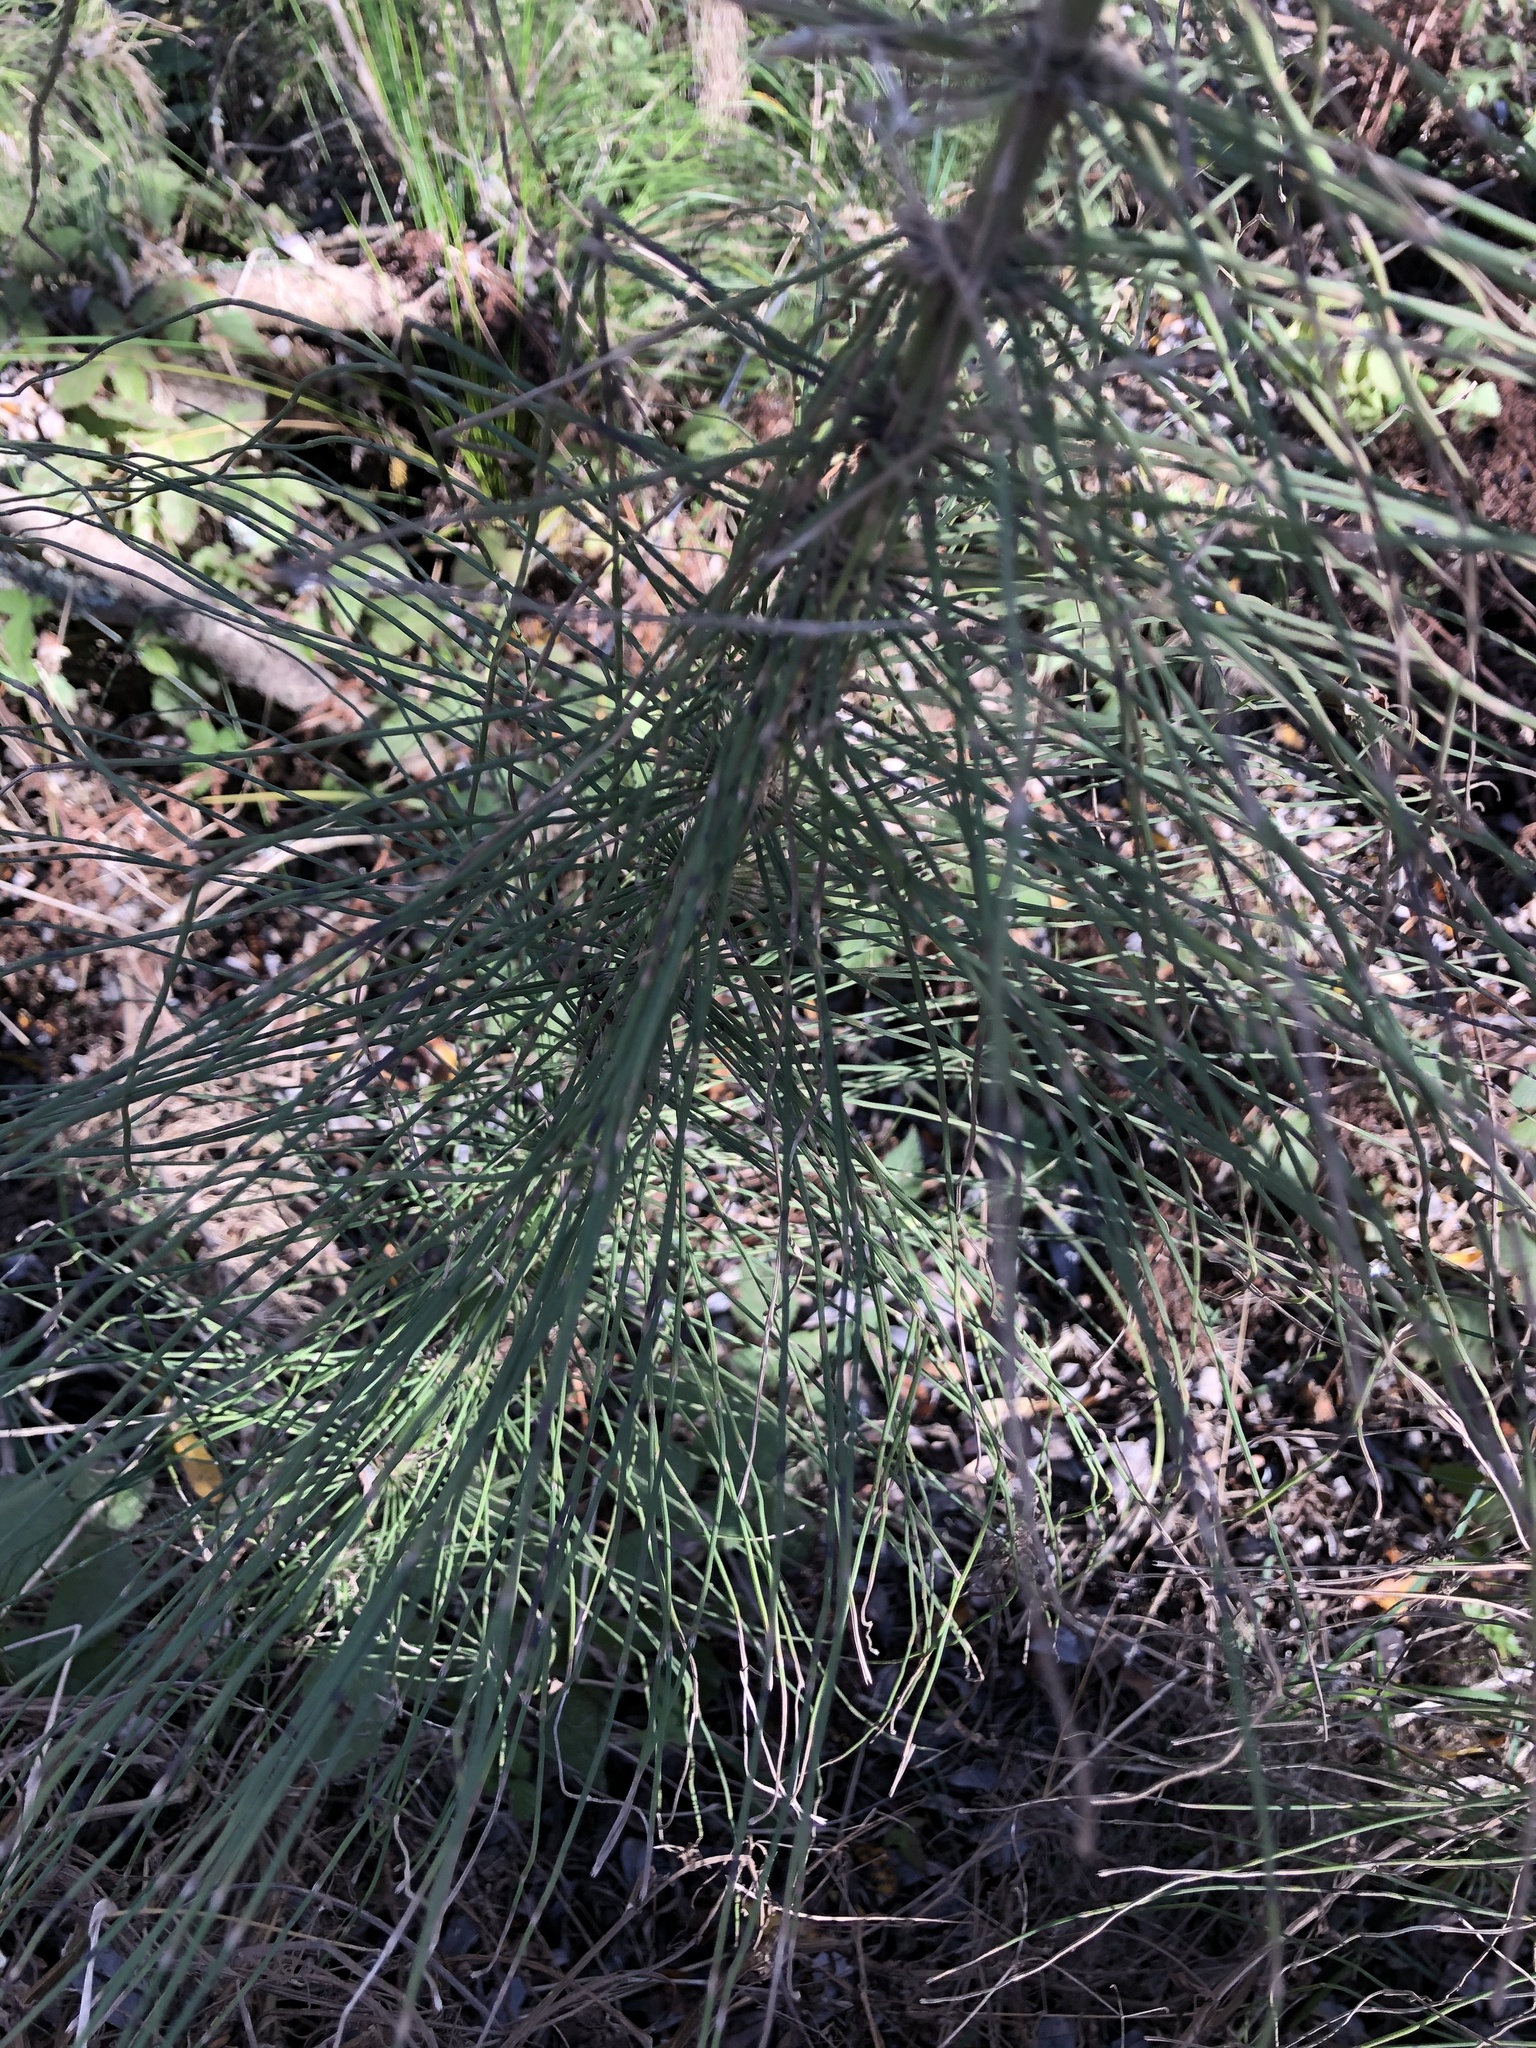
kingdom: Plantae
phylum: Tracheophyta
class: Polypodiopsida
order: Equisetales
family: Equisetaceae
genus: Equisetum
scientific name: Equisetum braunii
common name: Braun's horsetail
